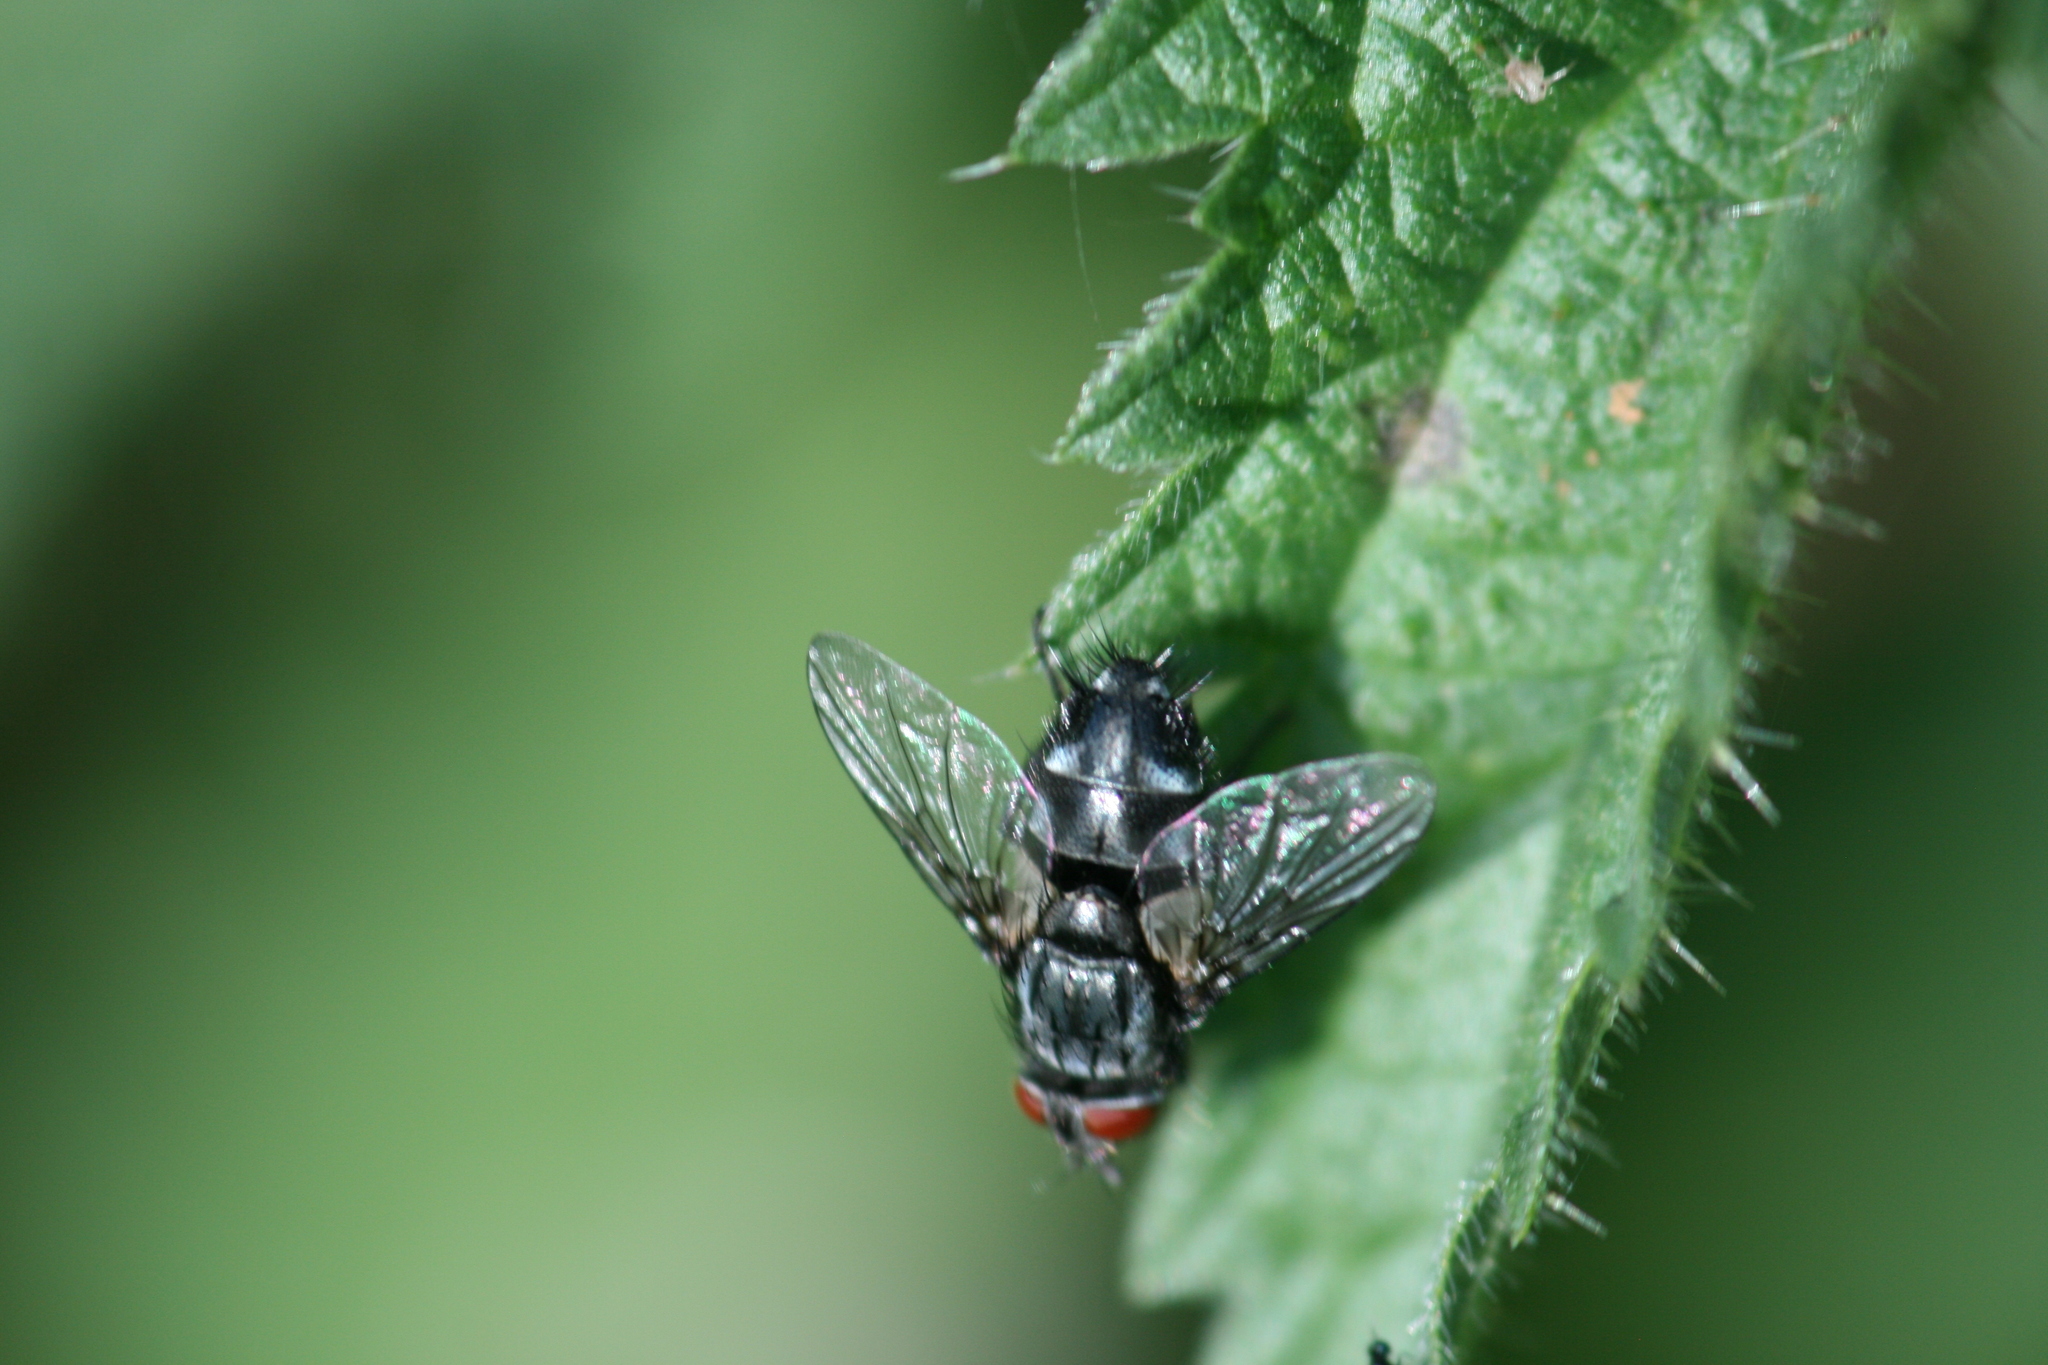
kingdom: Animalia
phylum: Arthropoda
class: Insecta
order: Diptera
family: Tachinidae
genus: Sturmia
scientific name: Sturmia bella
